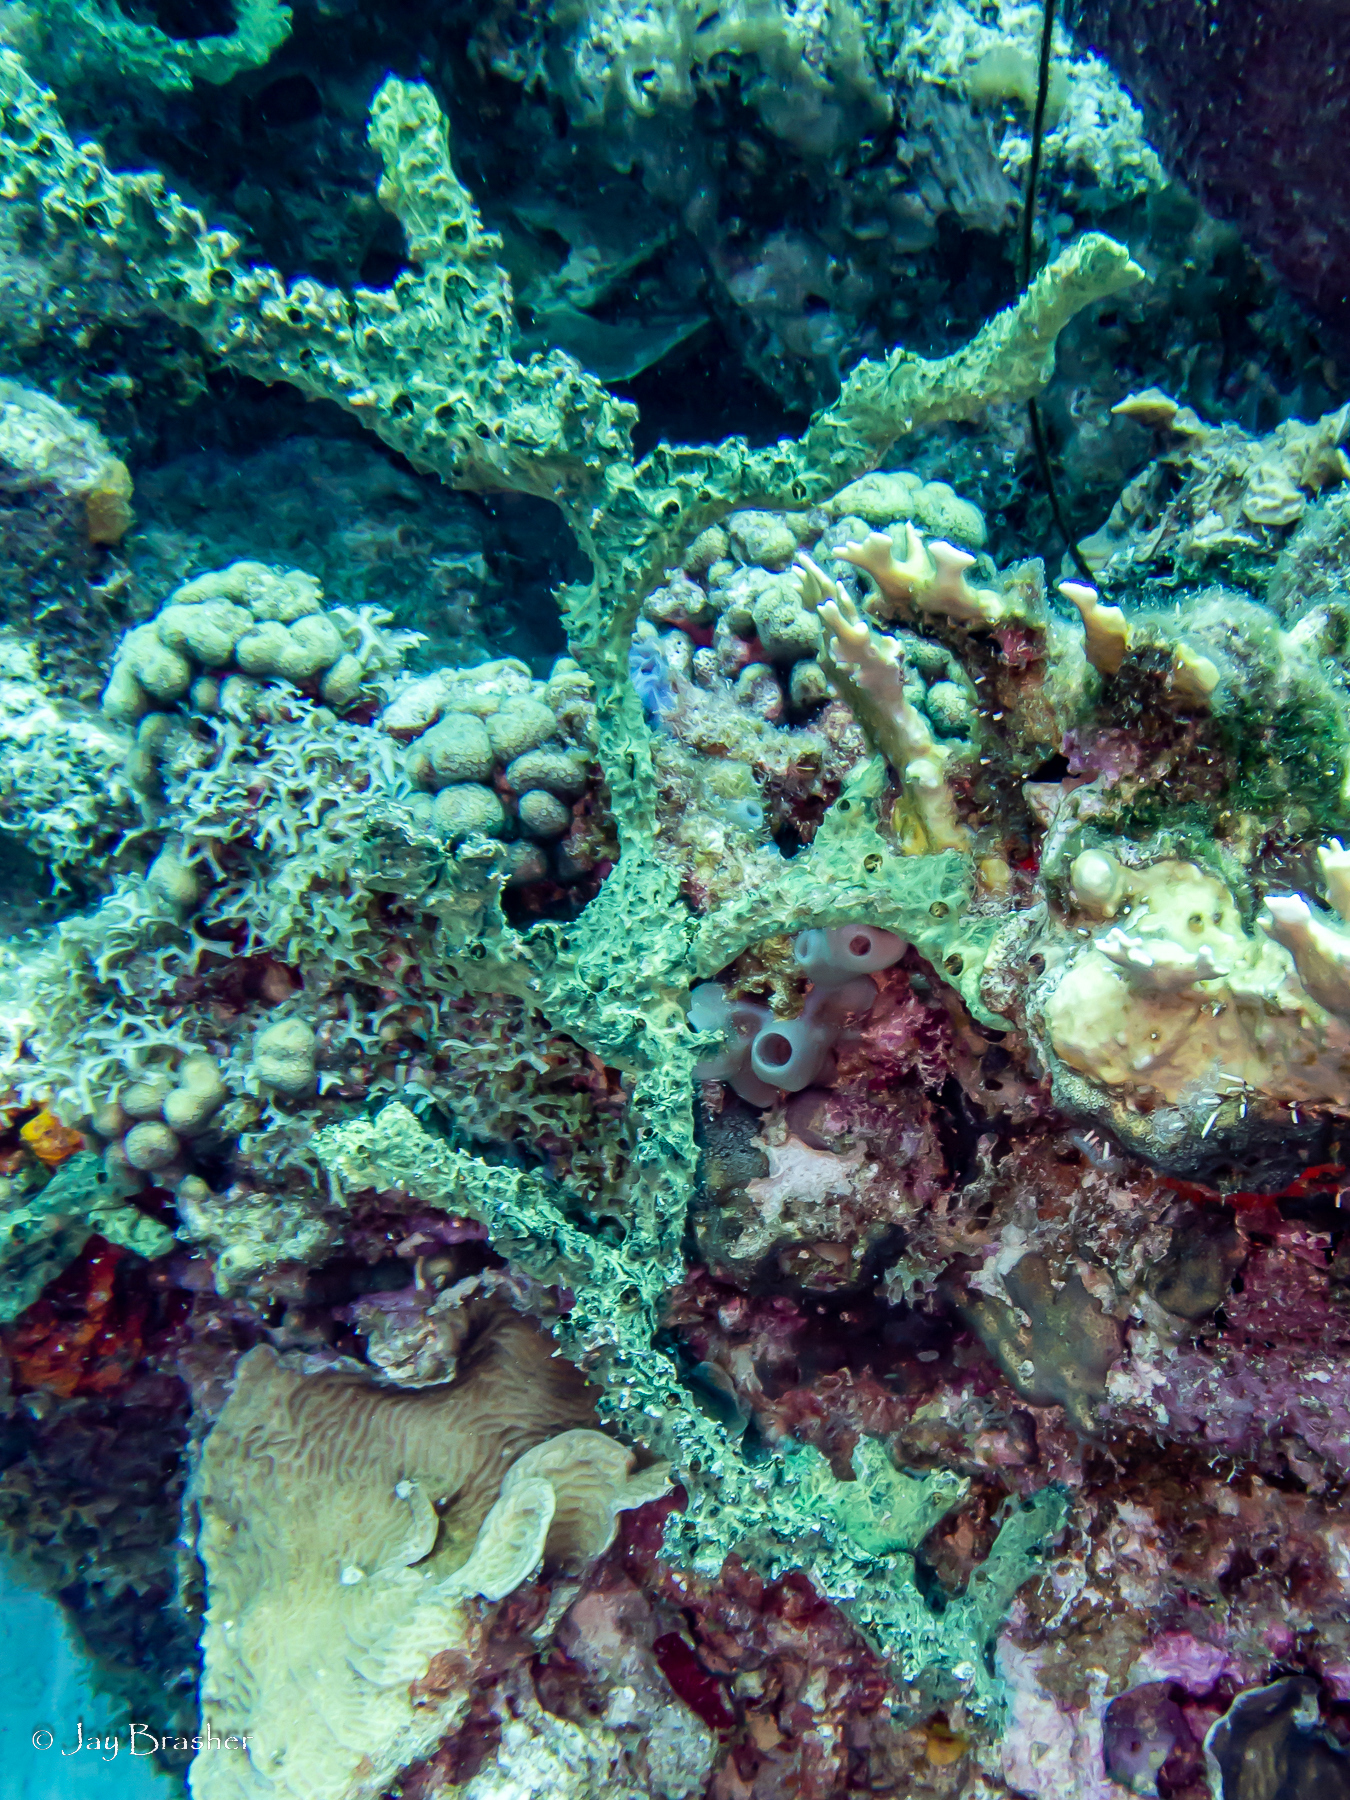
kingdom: Animalia
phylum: Porifera
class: Demospongiae
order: Poecilosclerida
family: Iotrochotidae
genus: Iotrochota
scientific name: Iotrochota birotulata
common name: Purple bleeding sponge
